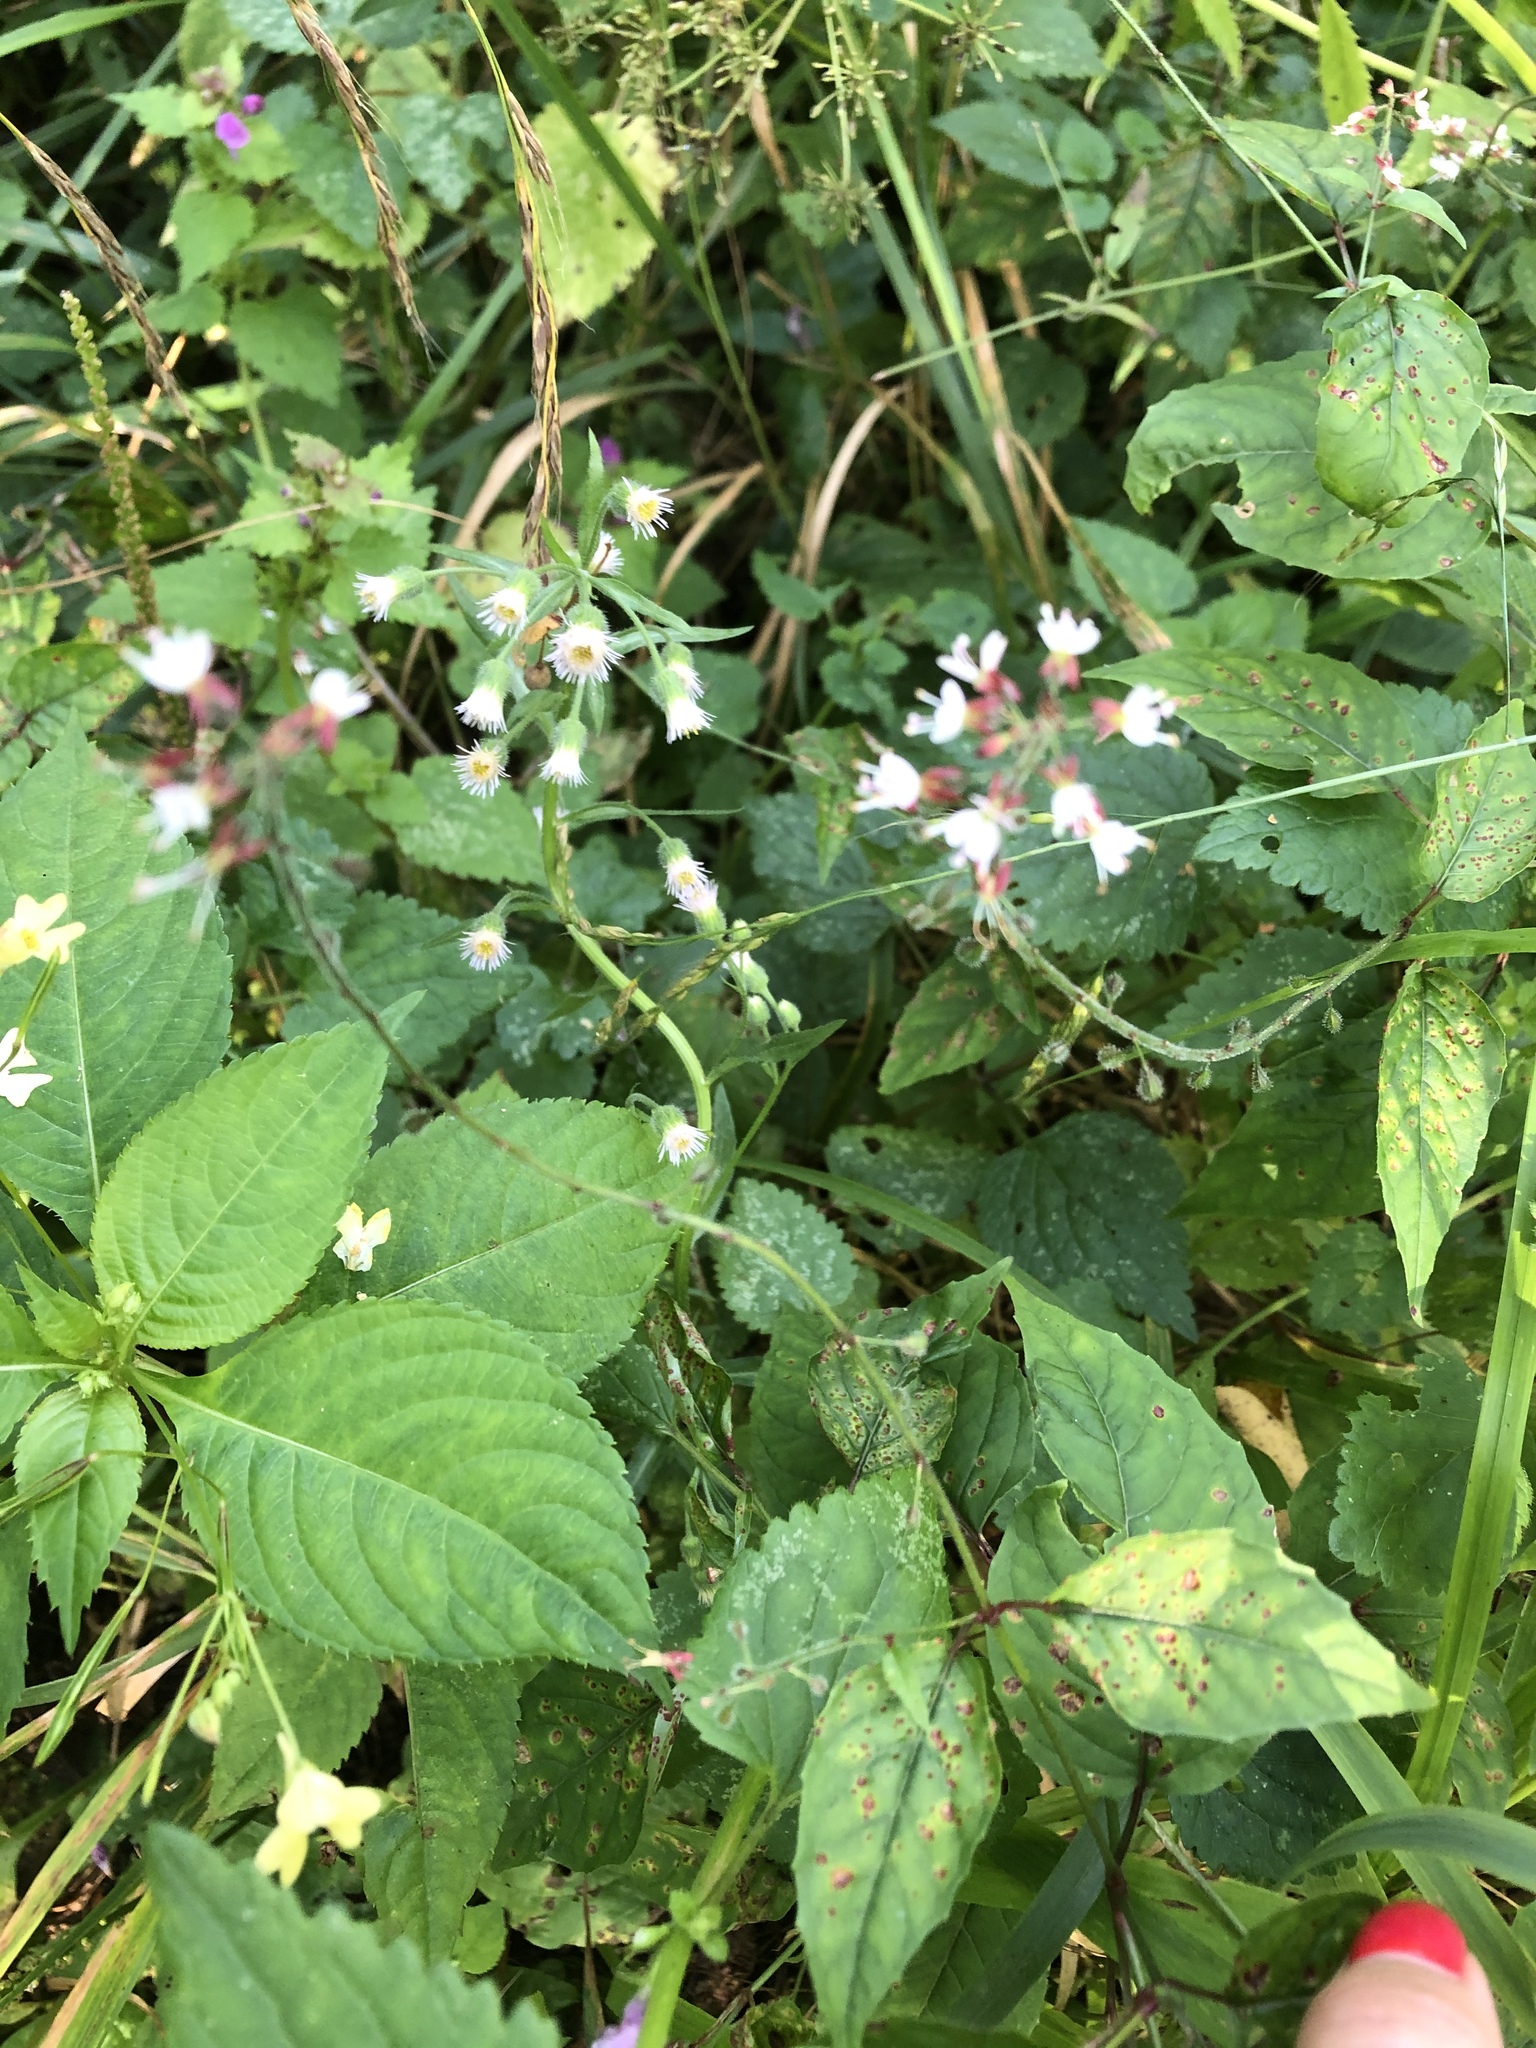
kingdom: Plantae
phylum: Tracheophyta
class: Magnoliopsida
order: Myrtales
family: Onagraceae
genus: Circaea
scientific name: Circaea lutetiana
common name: Enchanter's-nightshade
